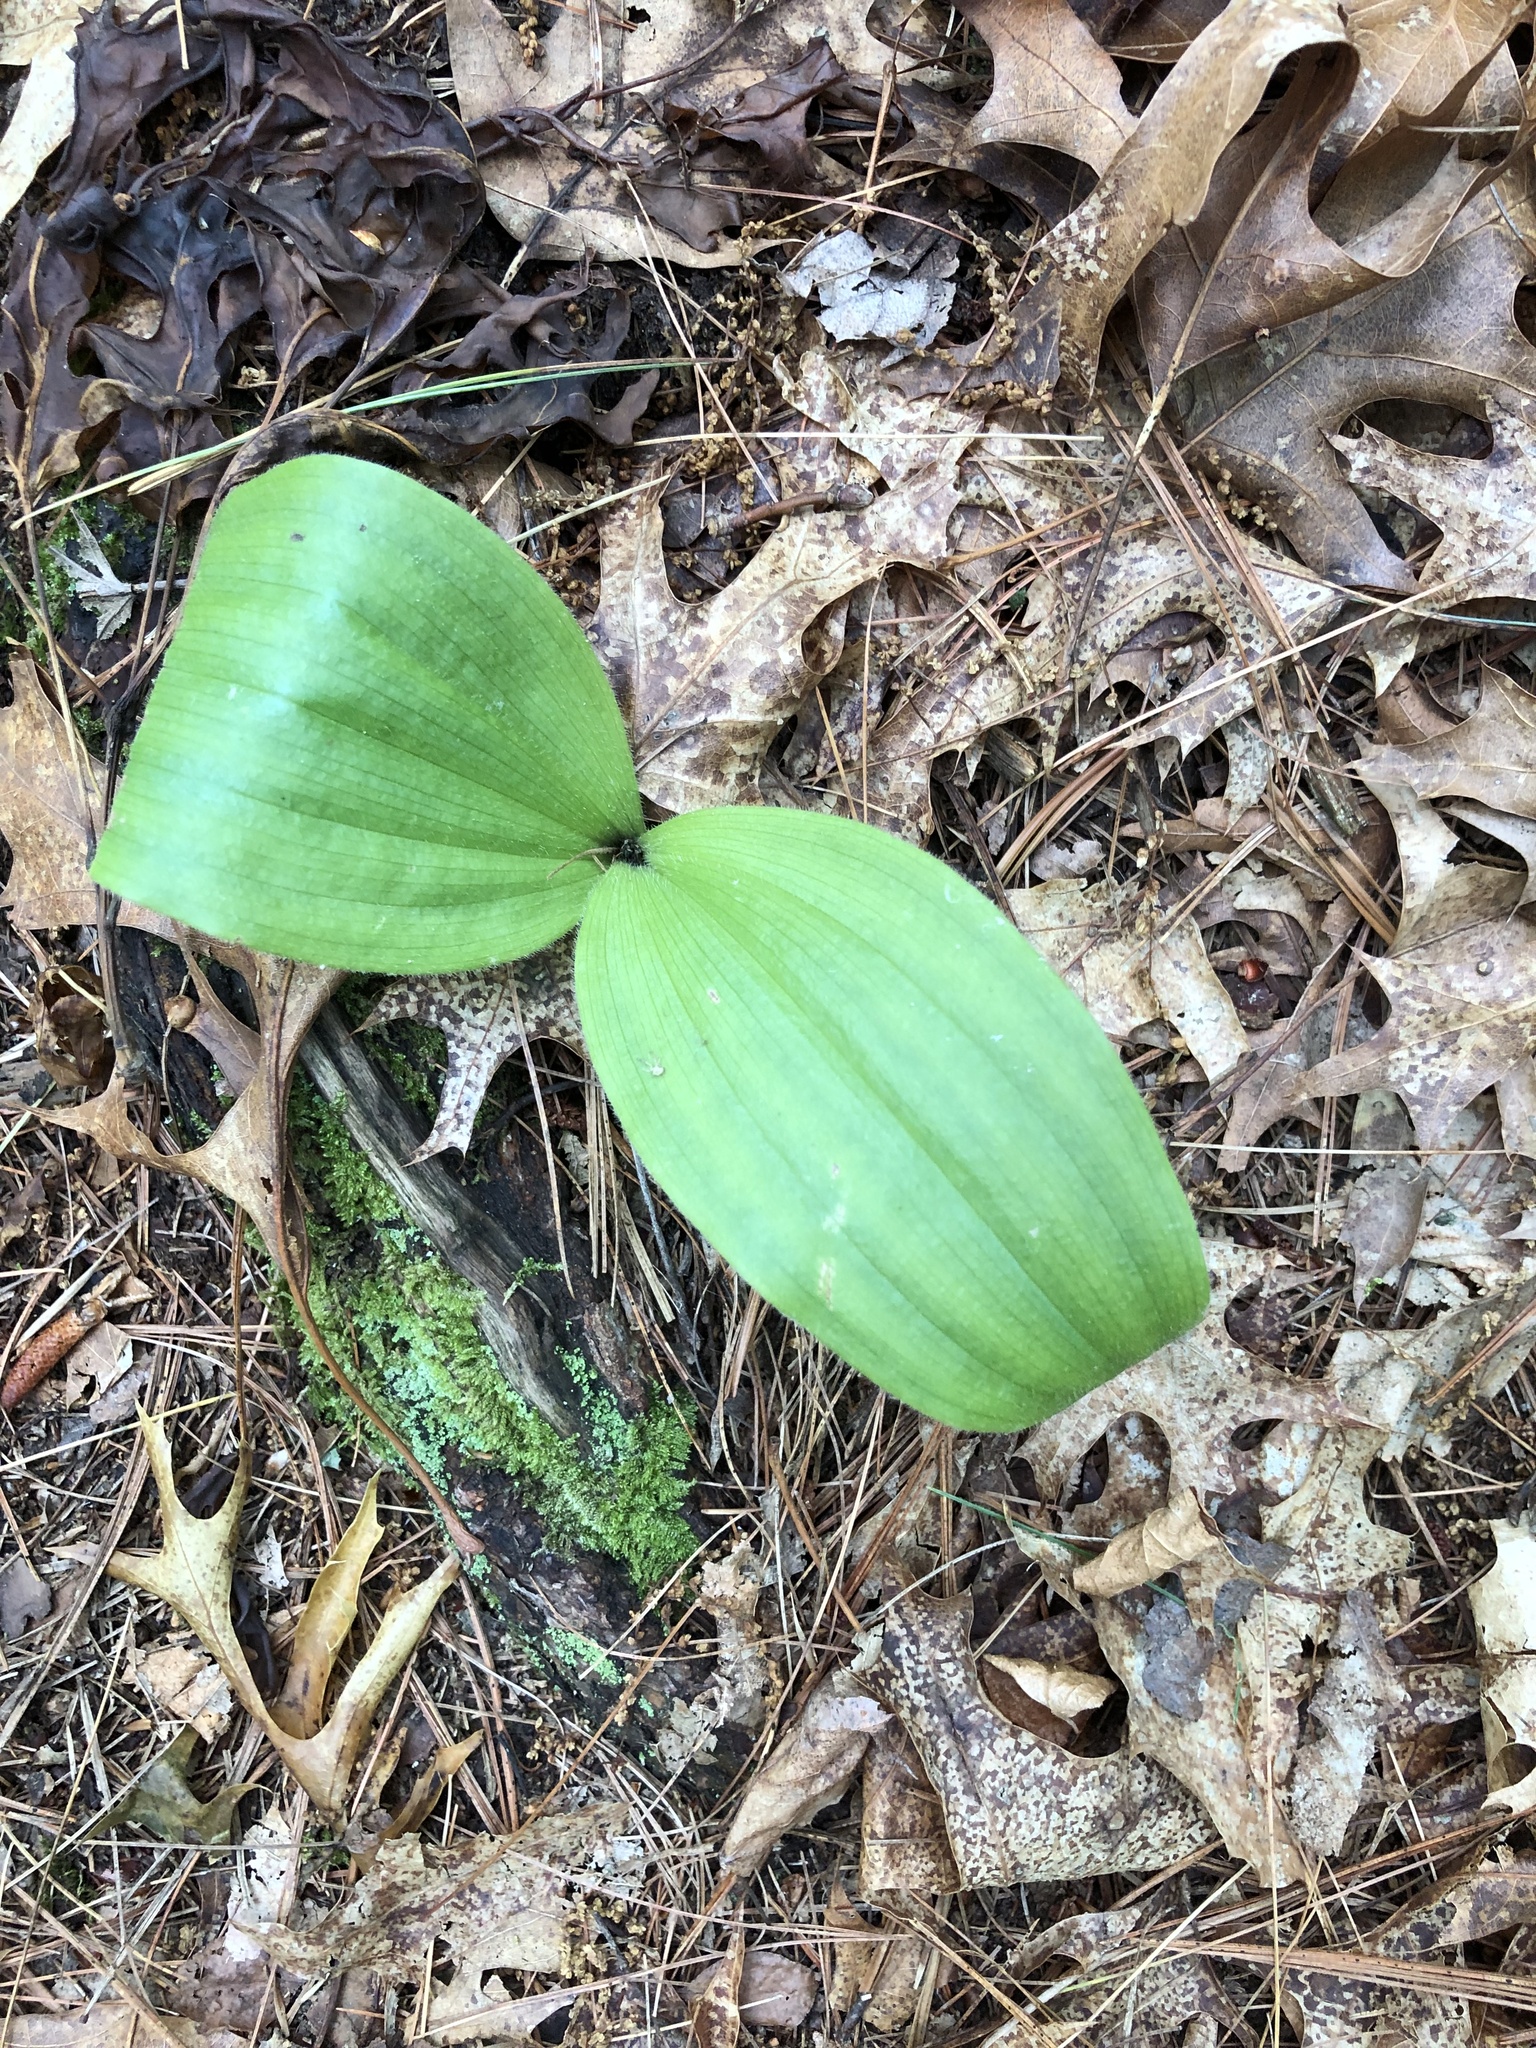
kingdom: Plantae
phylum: Tracheophyta
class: Liliopsida
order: Asparagales
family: Orchidaceae
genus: Cypripedium
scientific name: Cypripedium acaule
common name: Pink lady's-slipper
